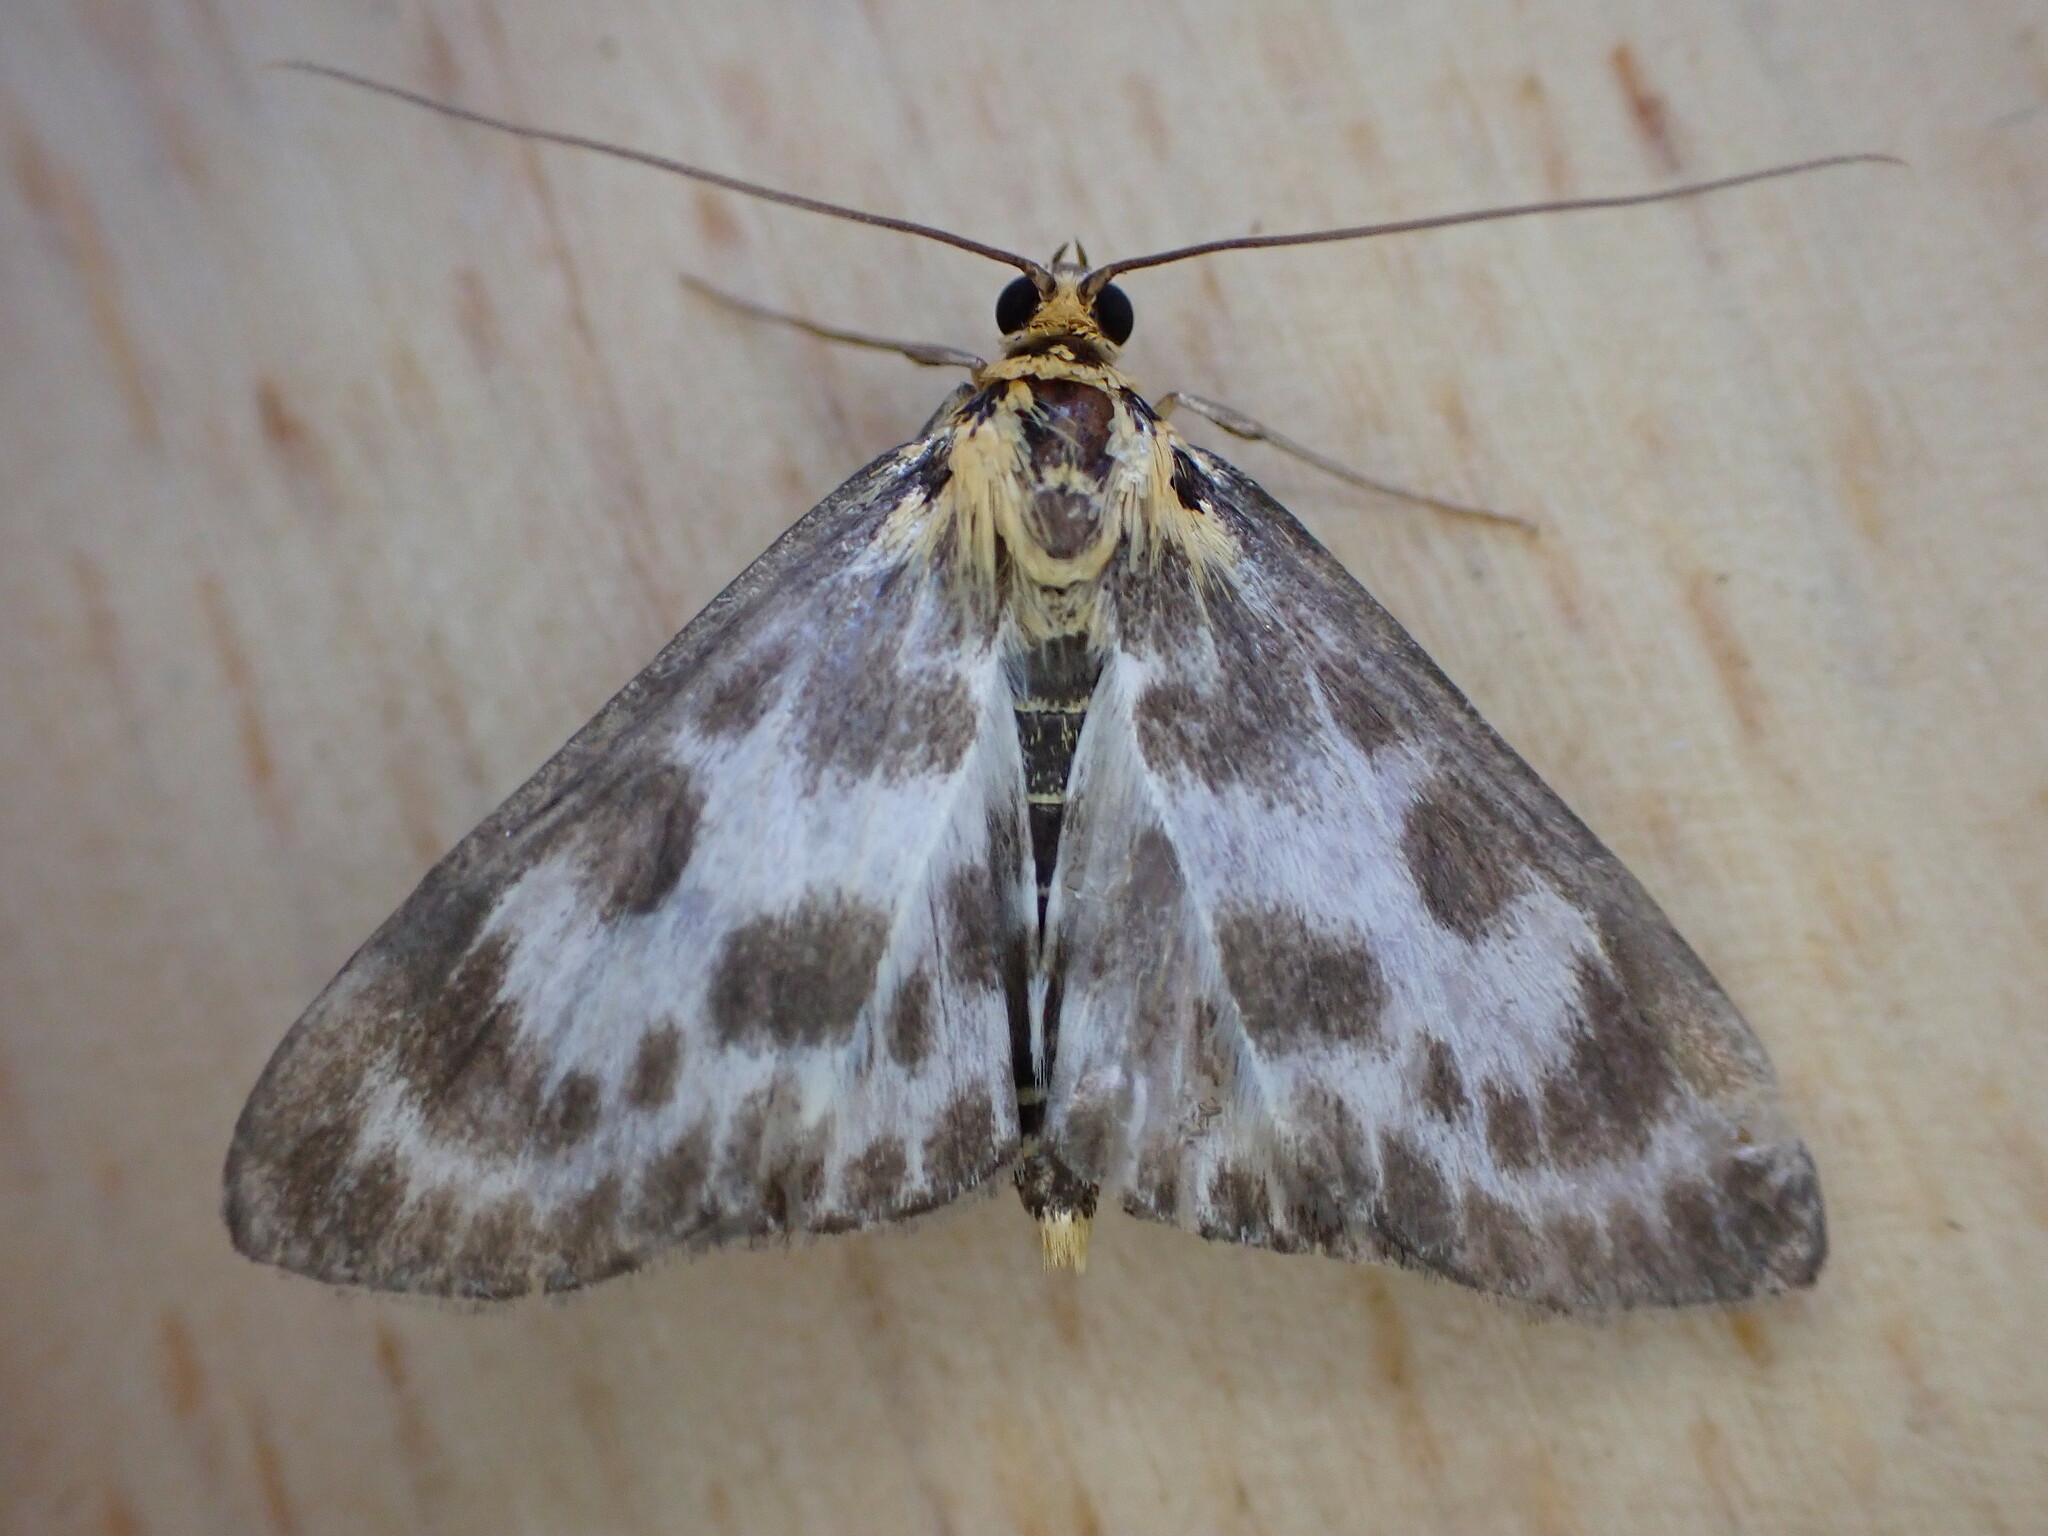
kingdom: Animalia
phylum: Arthropoda
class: Insecta
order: Lepidoptera
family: Crambidae
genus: Anania
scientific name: Anania hortulata
